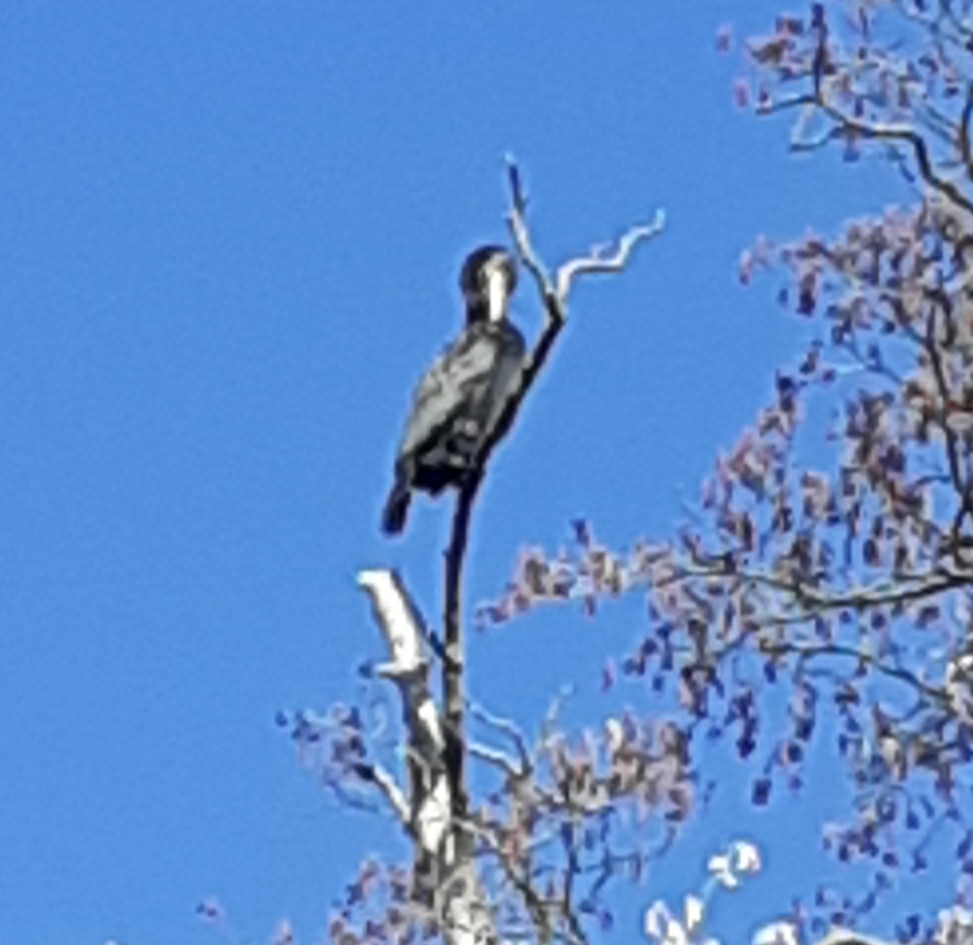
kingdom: Animalia
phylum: Chordata
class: Aves
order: Suliformes
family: Phalacrocoracidae
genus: Phalacrocorax
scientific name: Phalacrocorax carbo
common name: Great cormorant
